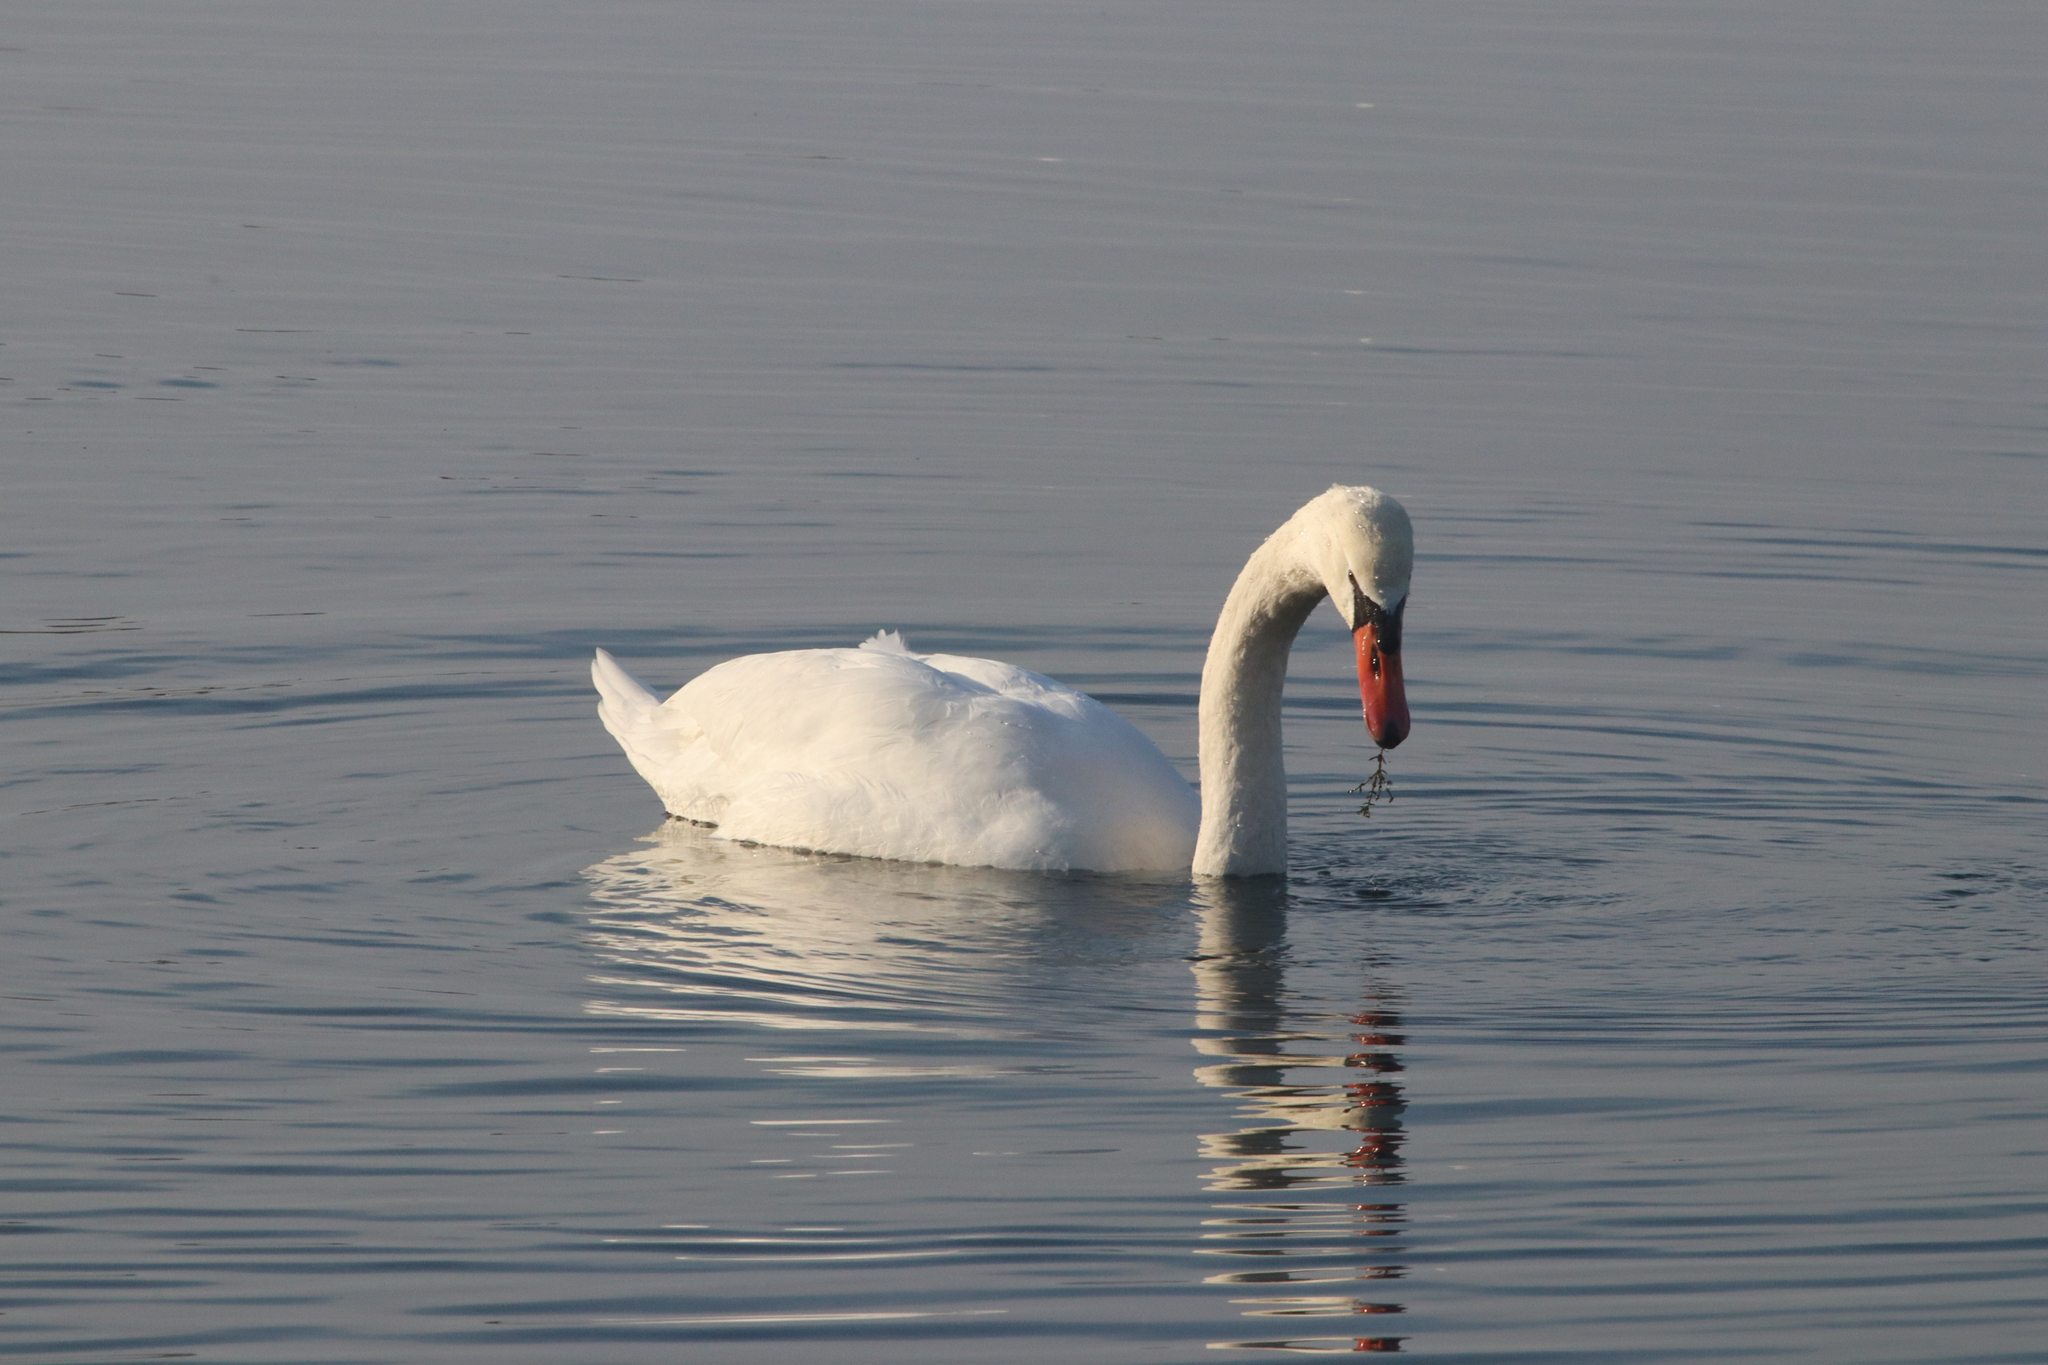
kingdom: Animalia
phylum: Chordata
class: Aves
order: Anseriformes
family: Anatidae
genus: Cygnus
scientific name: Cygnus olor
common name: Mute swan
